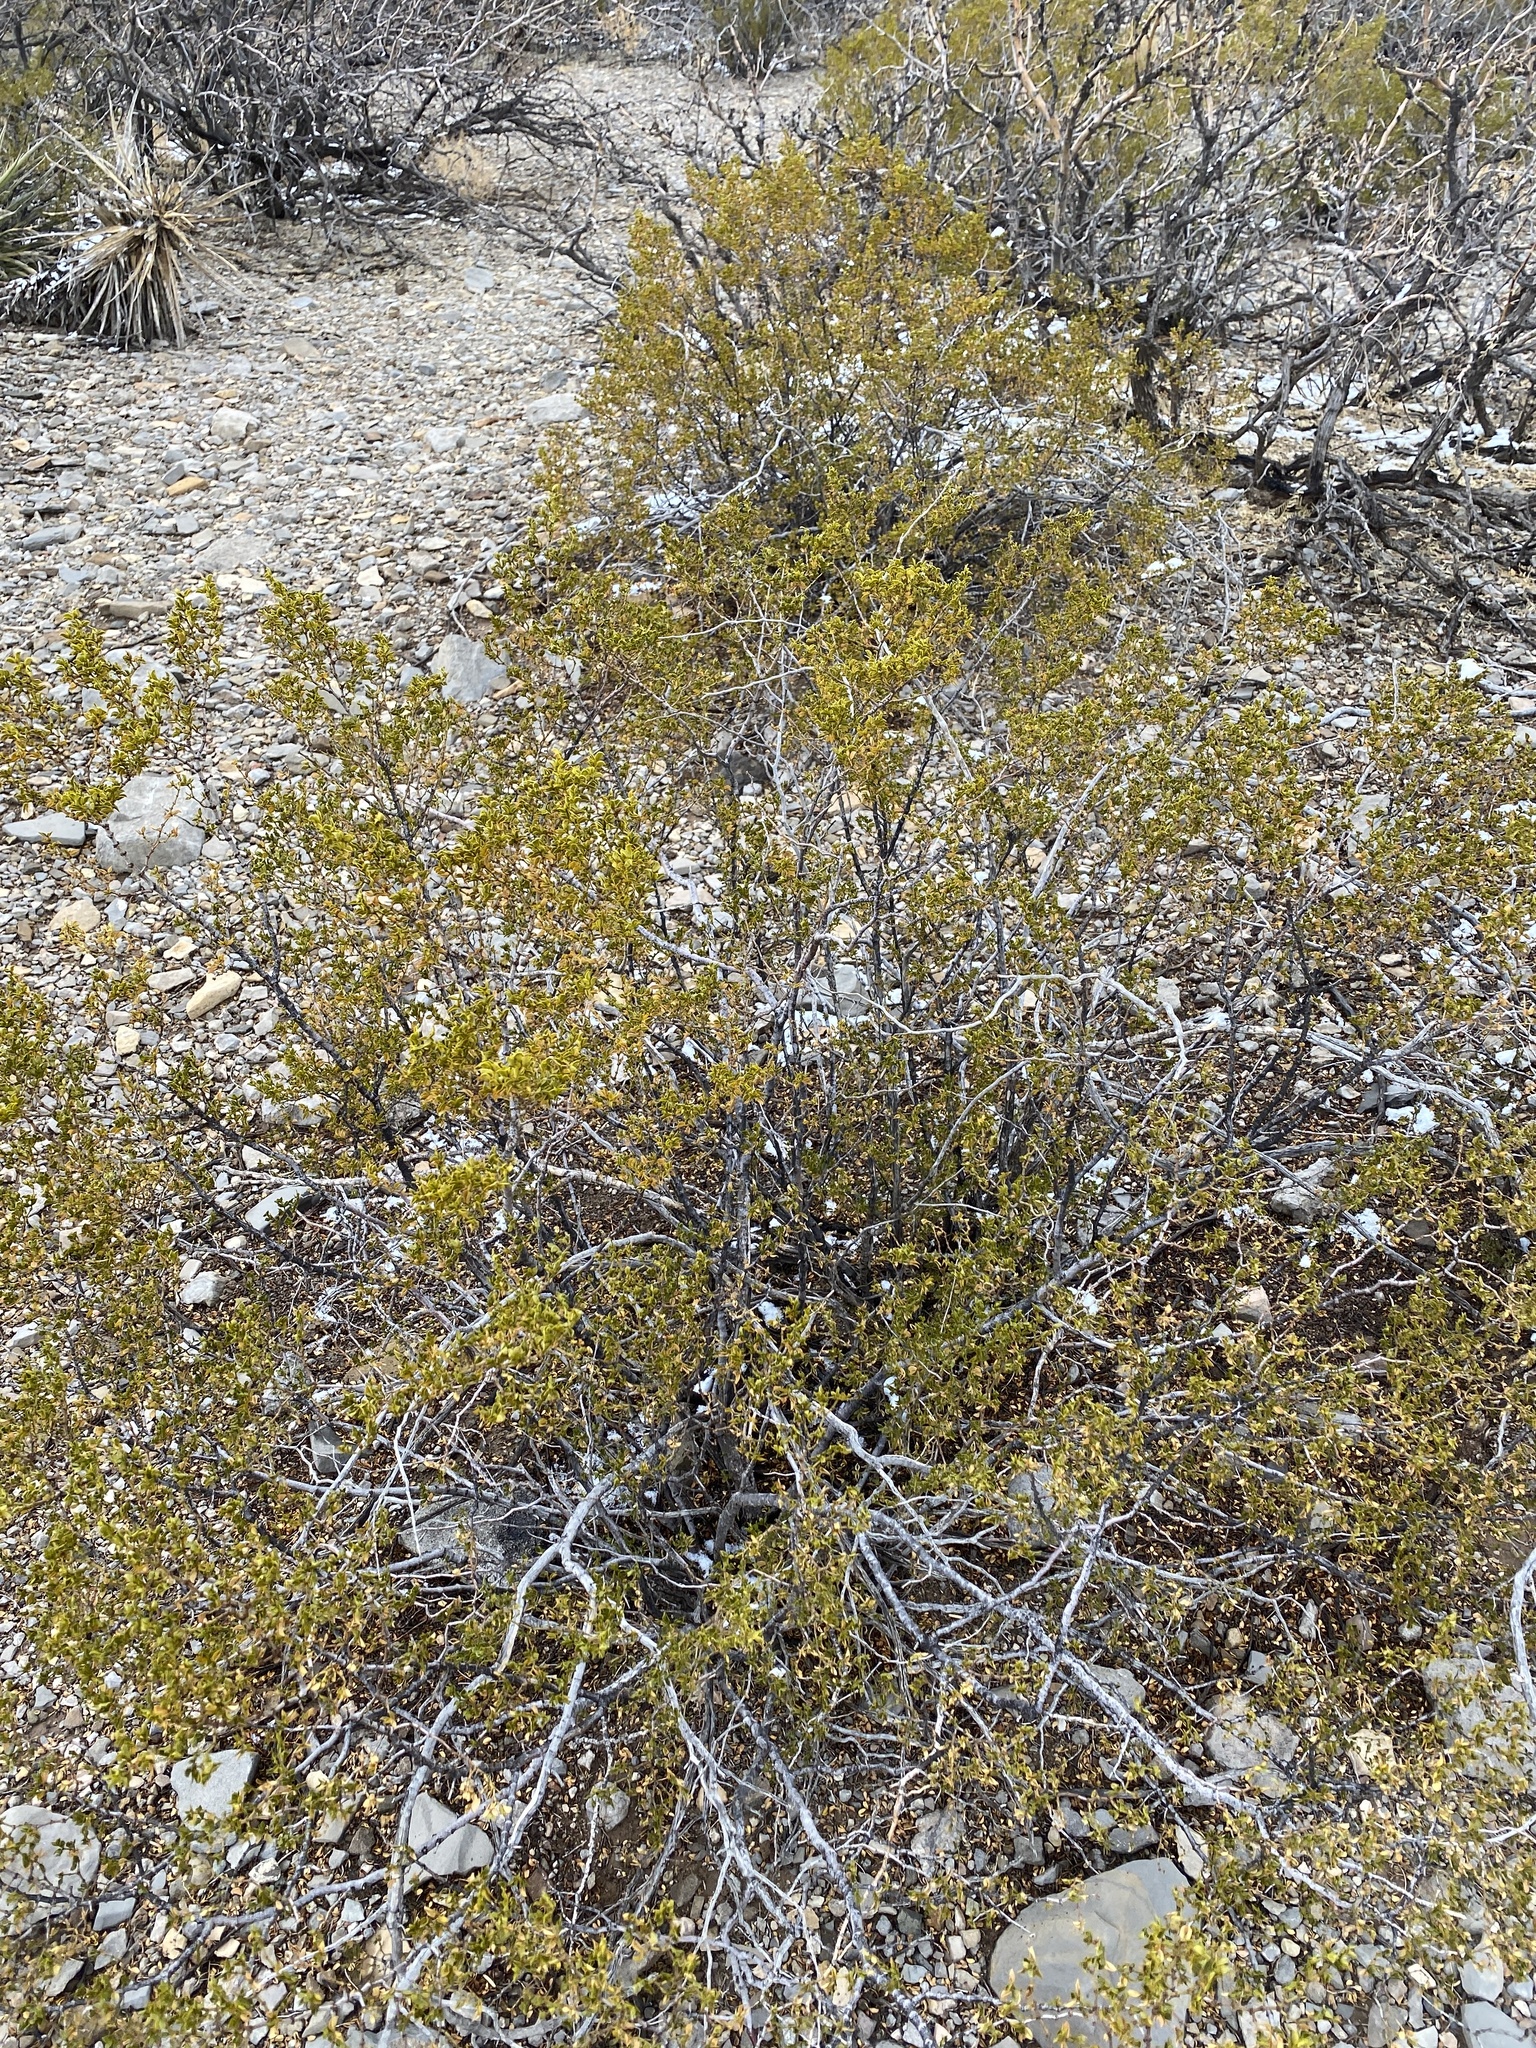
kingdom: Plantae
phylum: Tracheophyta
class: Magnoliopsida
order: Zygophyllales
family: Zygophyllaceae
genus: Larrea
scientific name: Larrea tridentata
